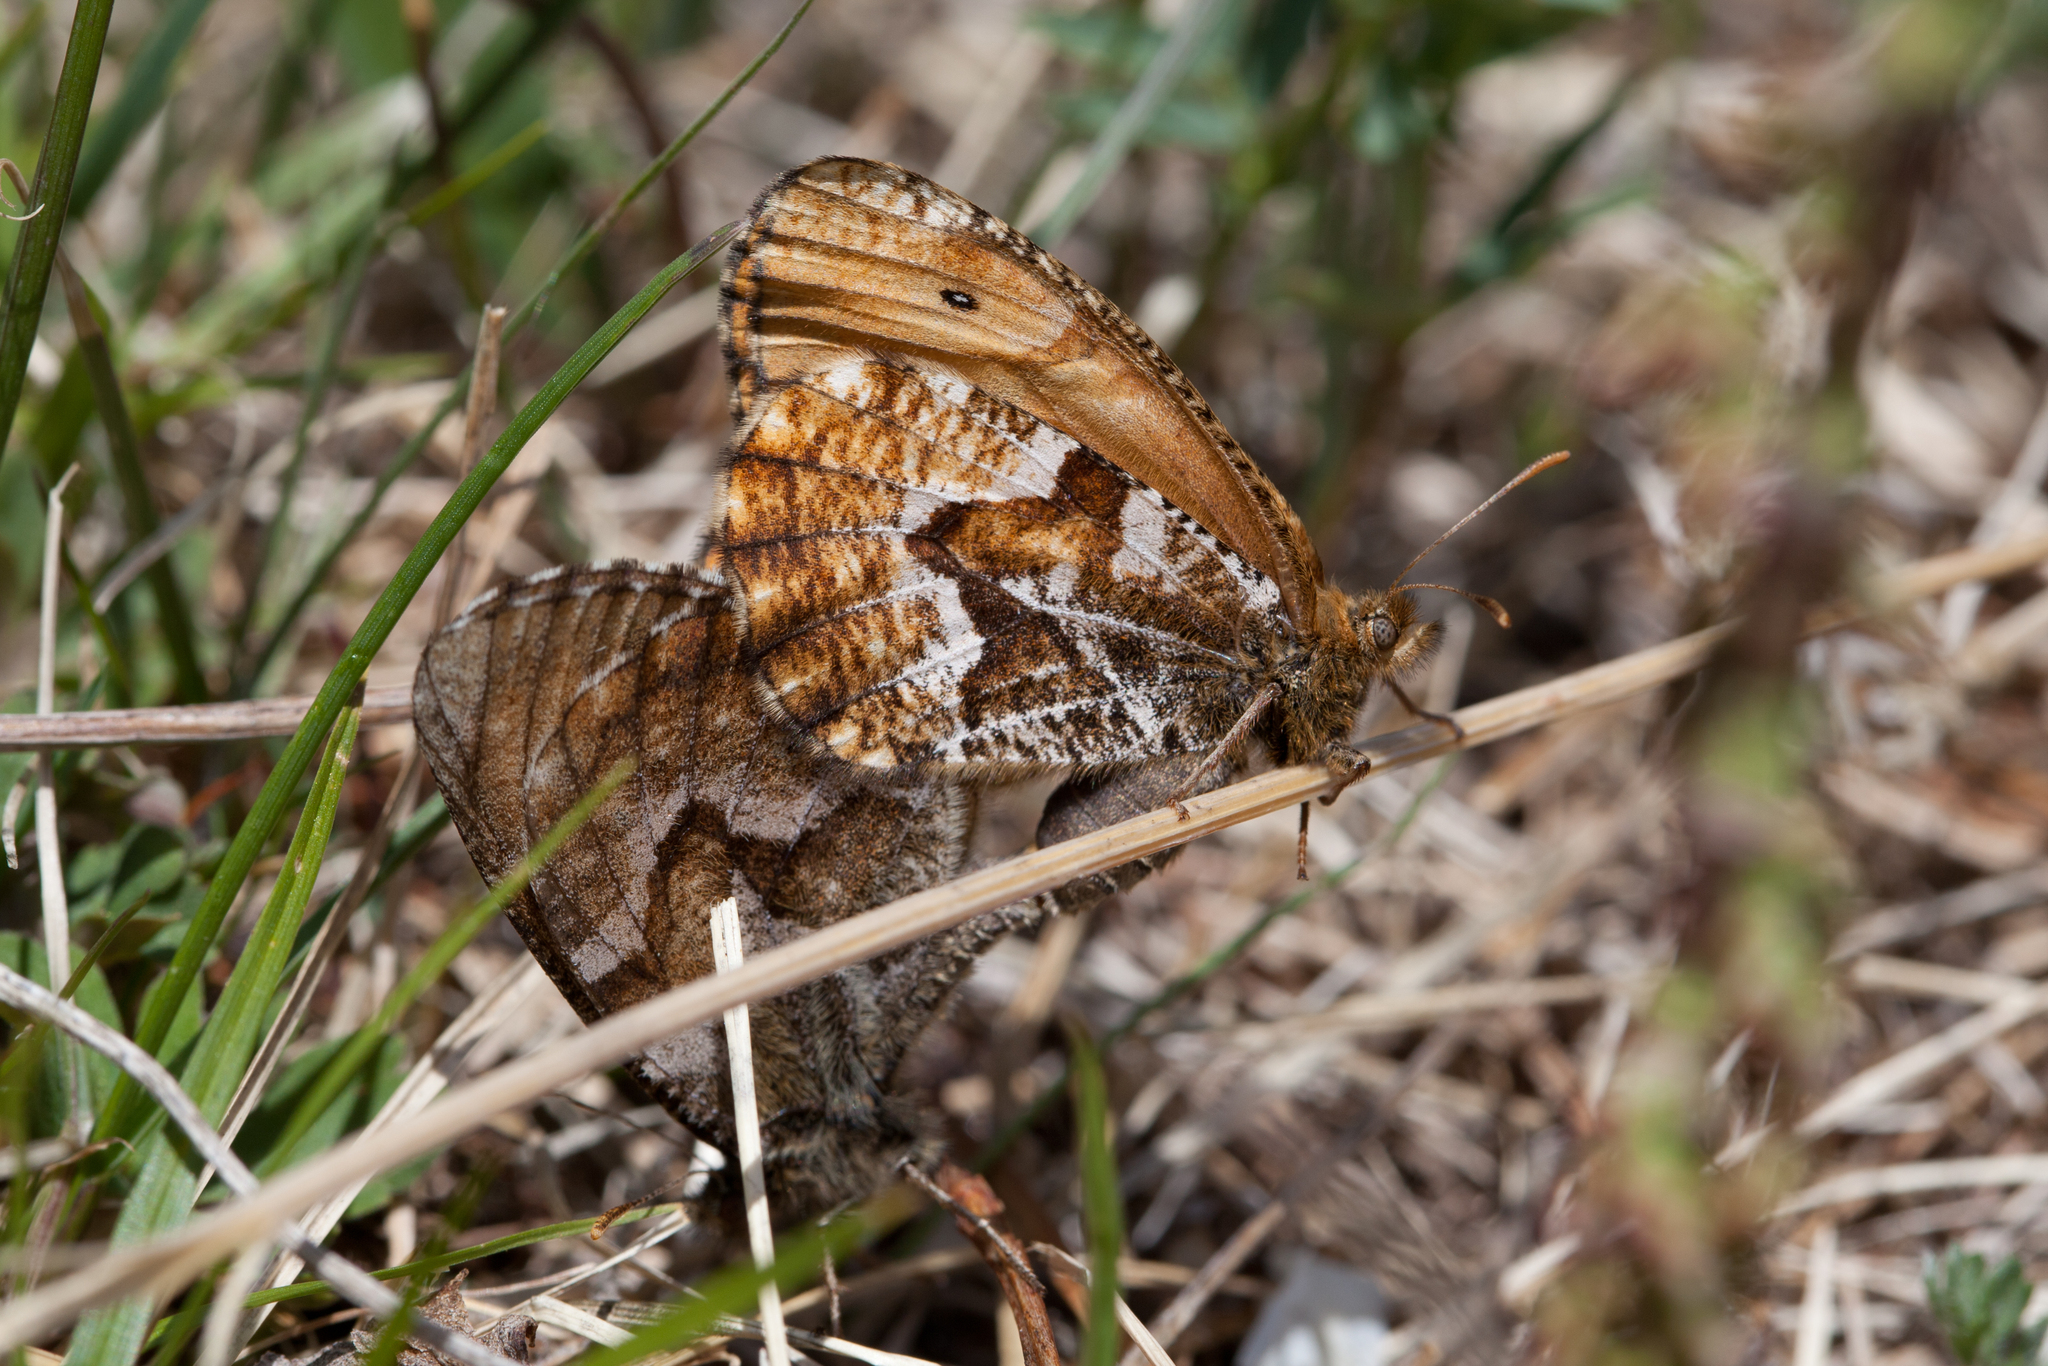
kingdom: Animalia
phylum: Arthropoda
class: Insecta
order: Lepidoptera
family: Nymphalidae
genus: Oeneis
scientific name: Oeneis urda
